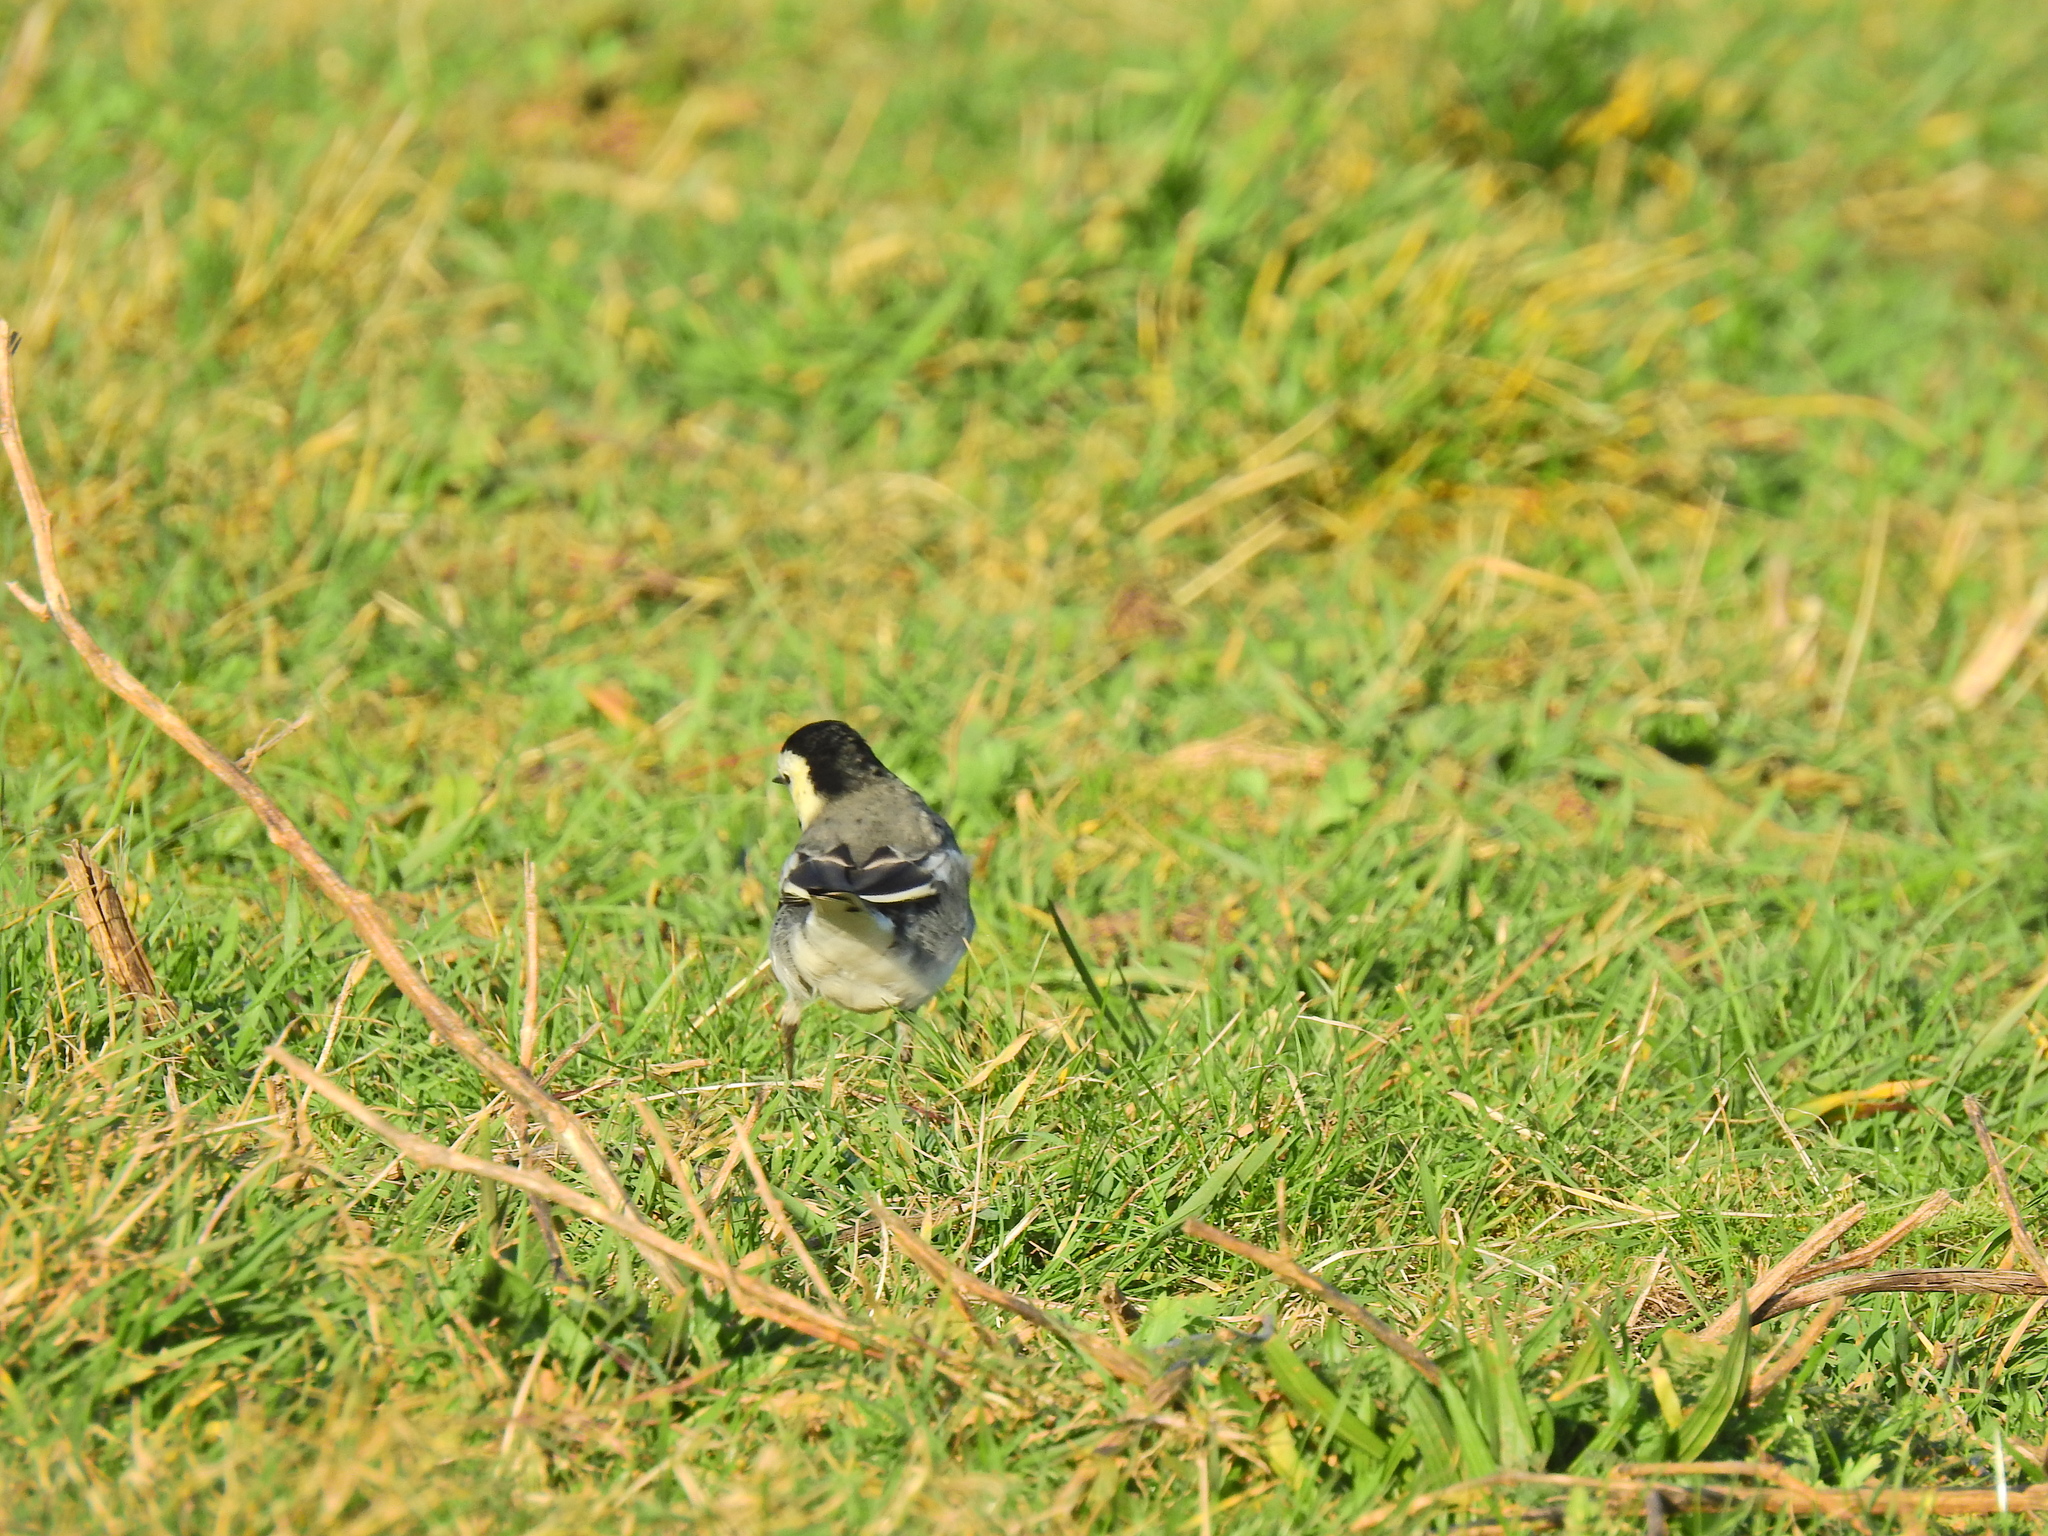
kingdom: Animalia
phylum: Chordata
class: Aves
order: Passeriformes
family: Motacillidae
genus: Motacilla
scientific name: Motacilla alba
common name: White wagtail
